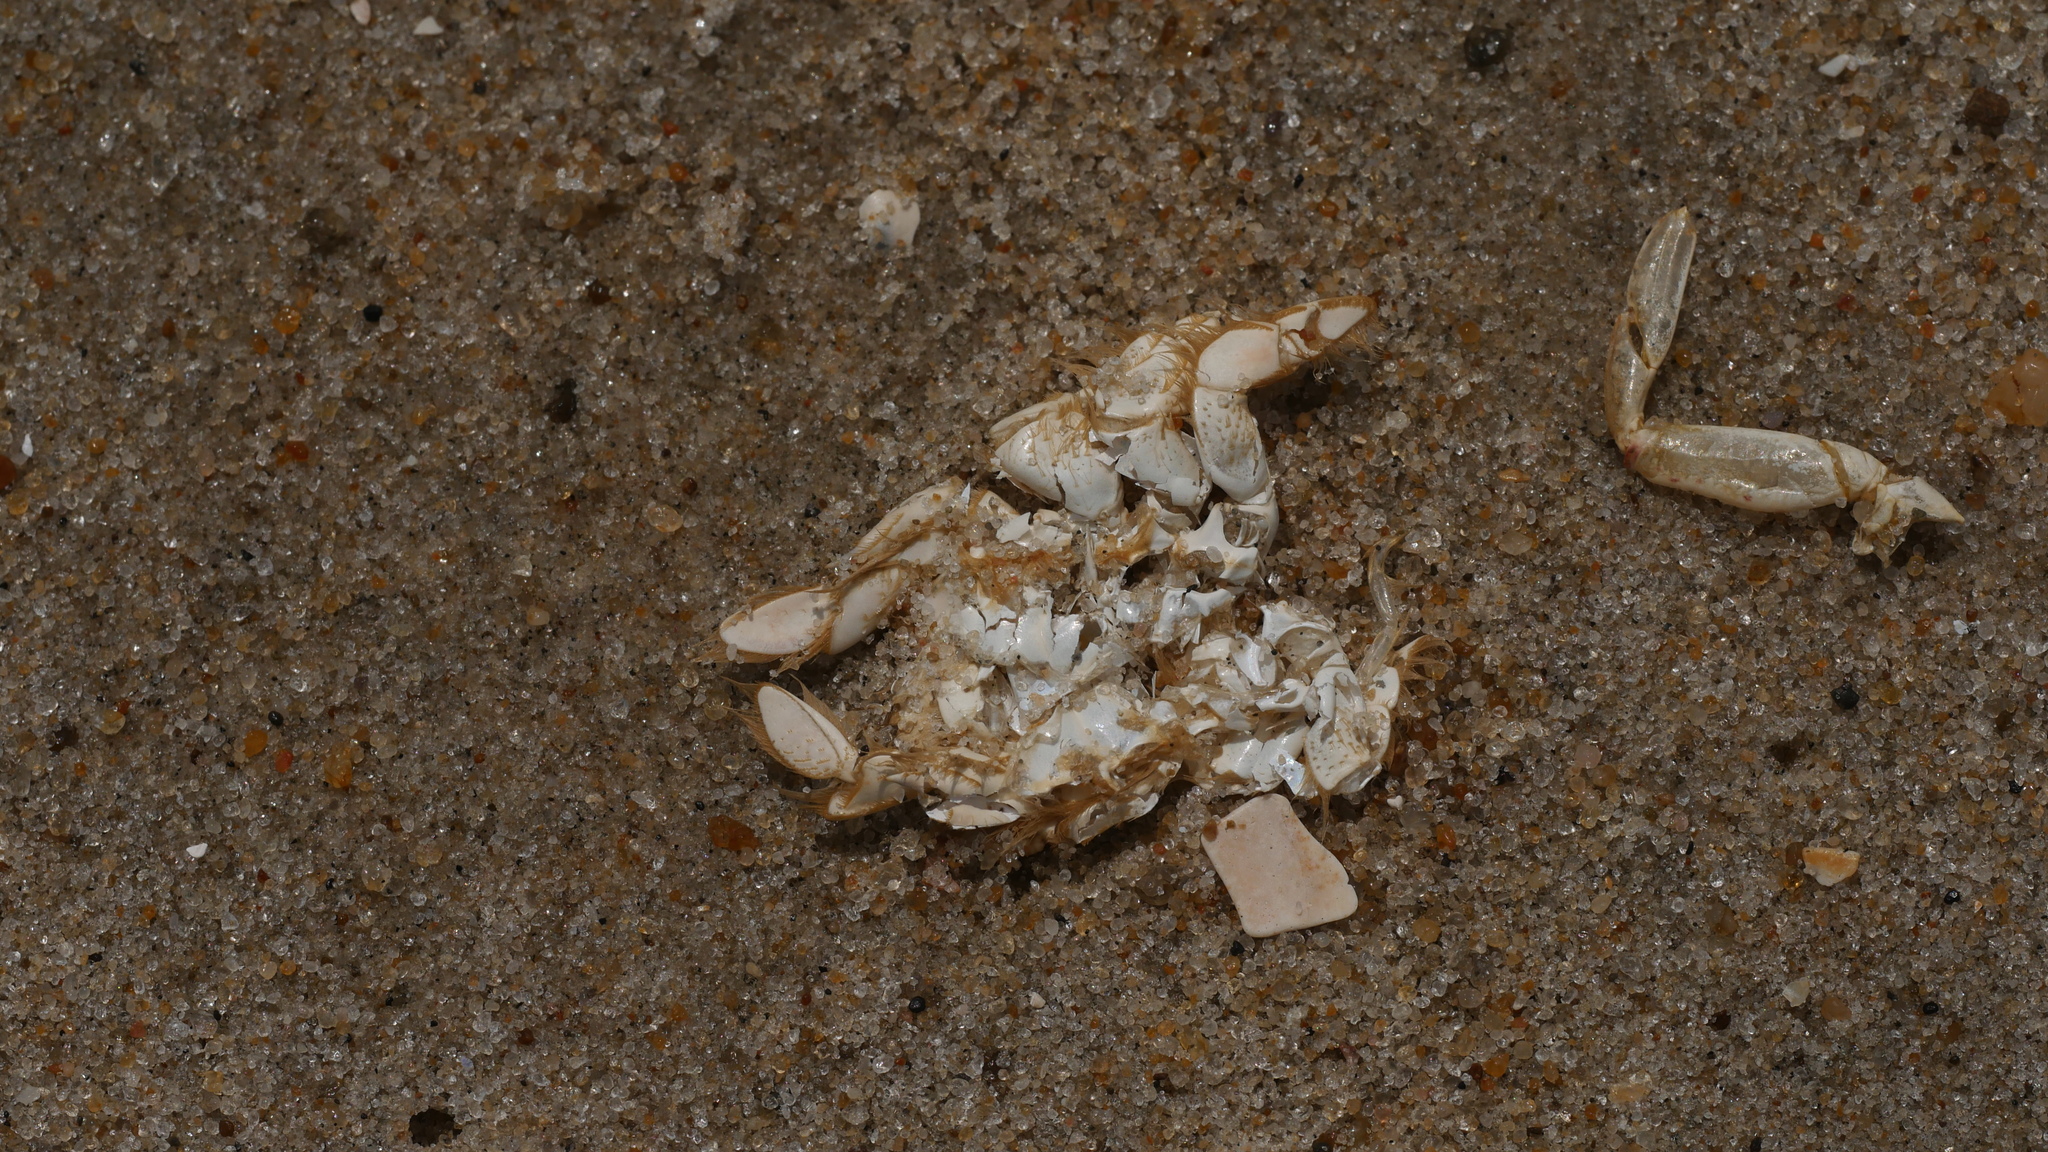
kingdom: Animalia
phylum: Arthropoda
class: Malacostraca
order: Decapoda
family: Hippidae
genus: Emerita
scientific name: Emerita talpoida
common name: Atlantic sand crab
